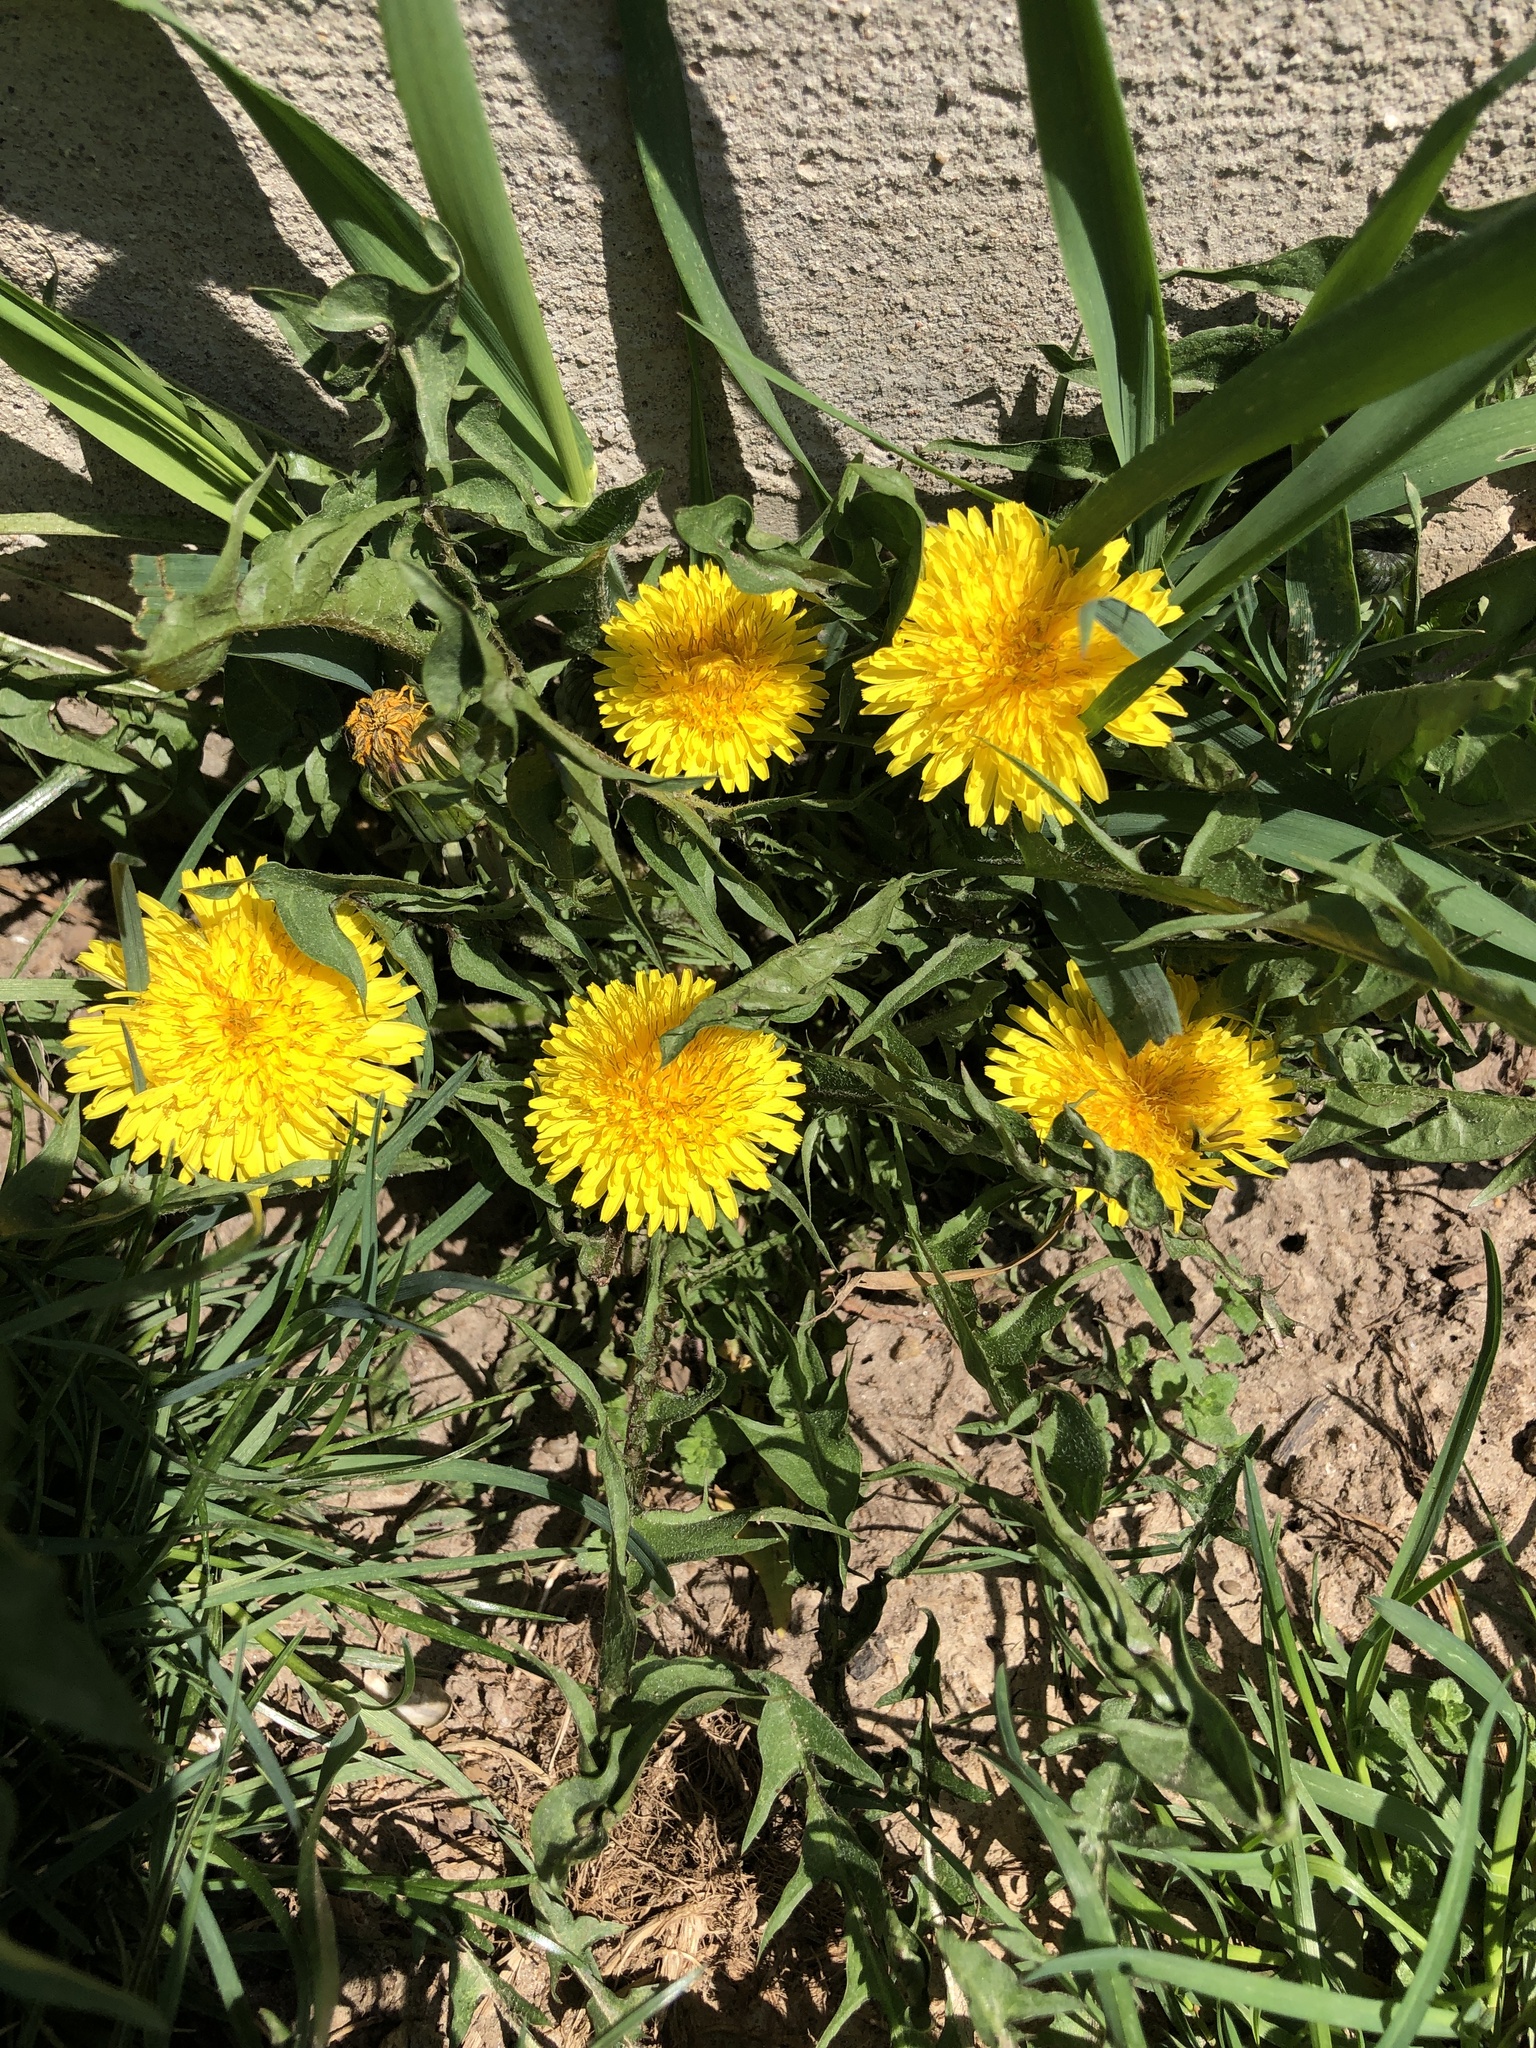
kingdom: Plantae
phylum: Tracheophyta
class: Magnoliopsida
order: Asterales
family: Asteraceae
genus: Taraxacum
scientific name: Taraxacum officinale
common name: Common dandelion
